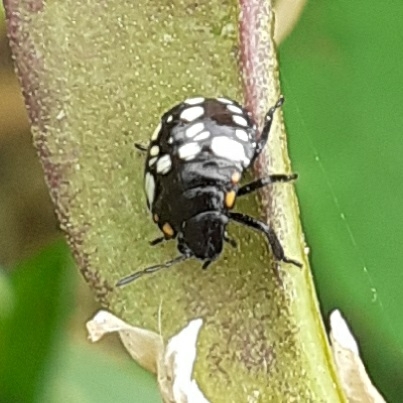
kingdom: Animalia
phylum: Arthropoda
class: Insecta
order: Hemiptera
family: Pentatomidae
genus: Nezara
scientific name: Nezara viridula
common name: Southern green stink bug
